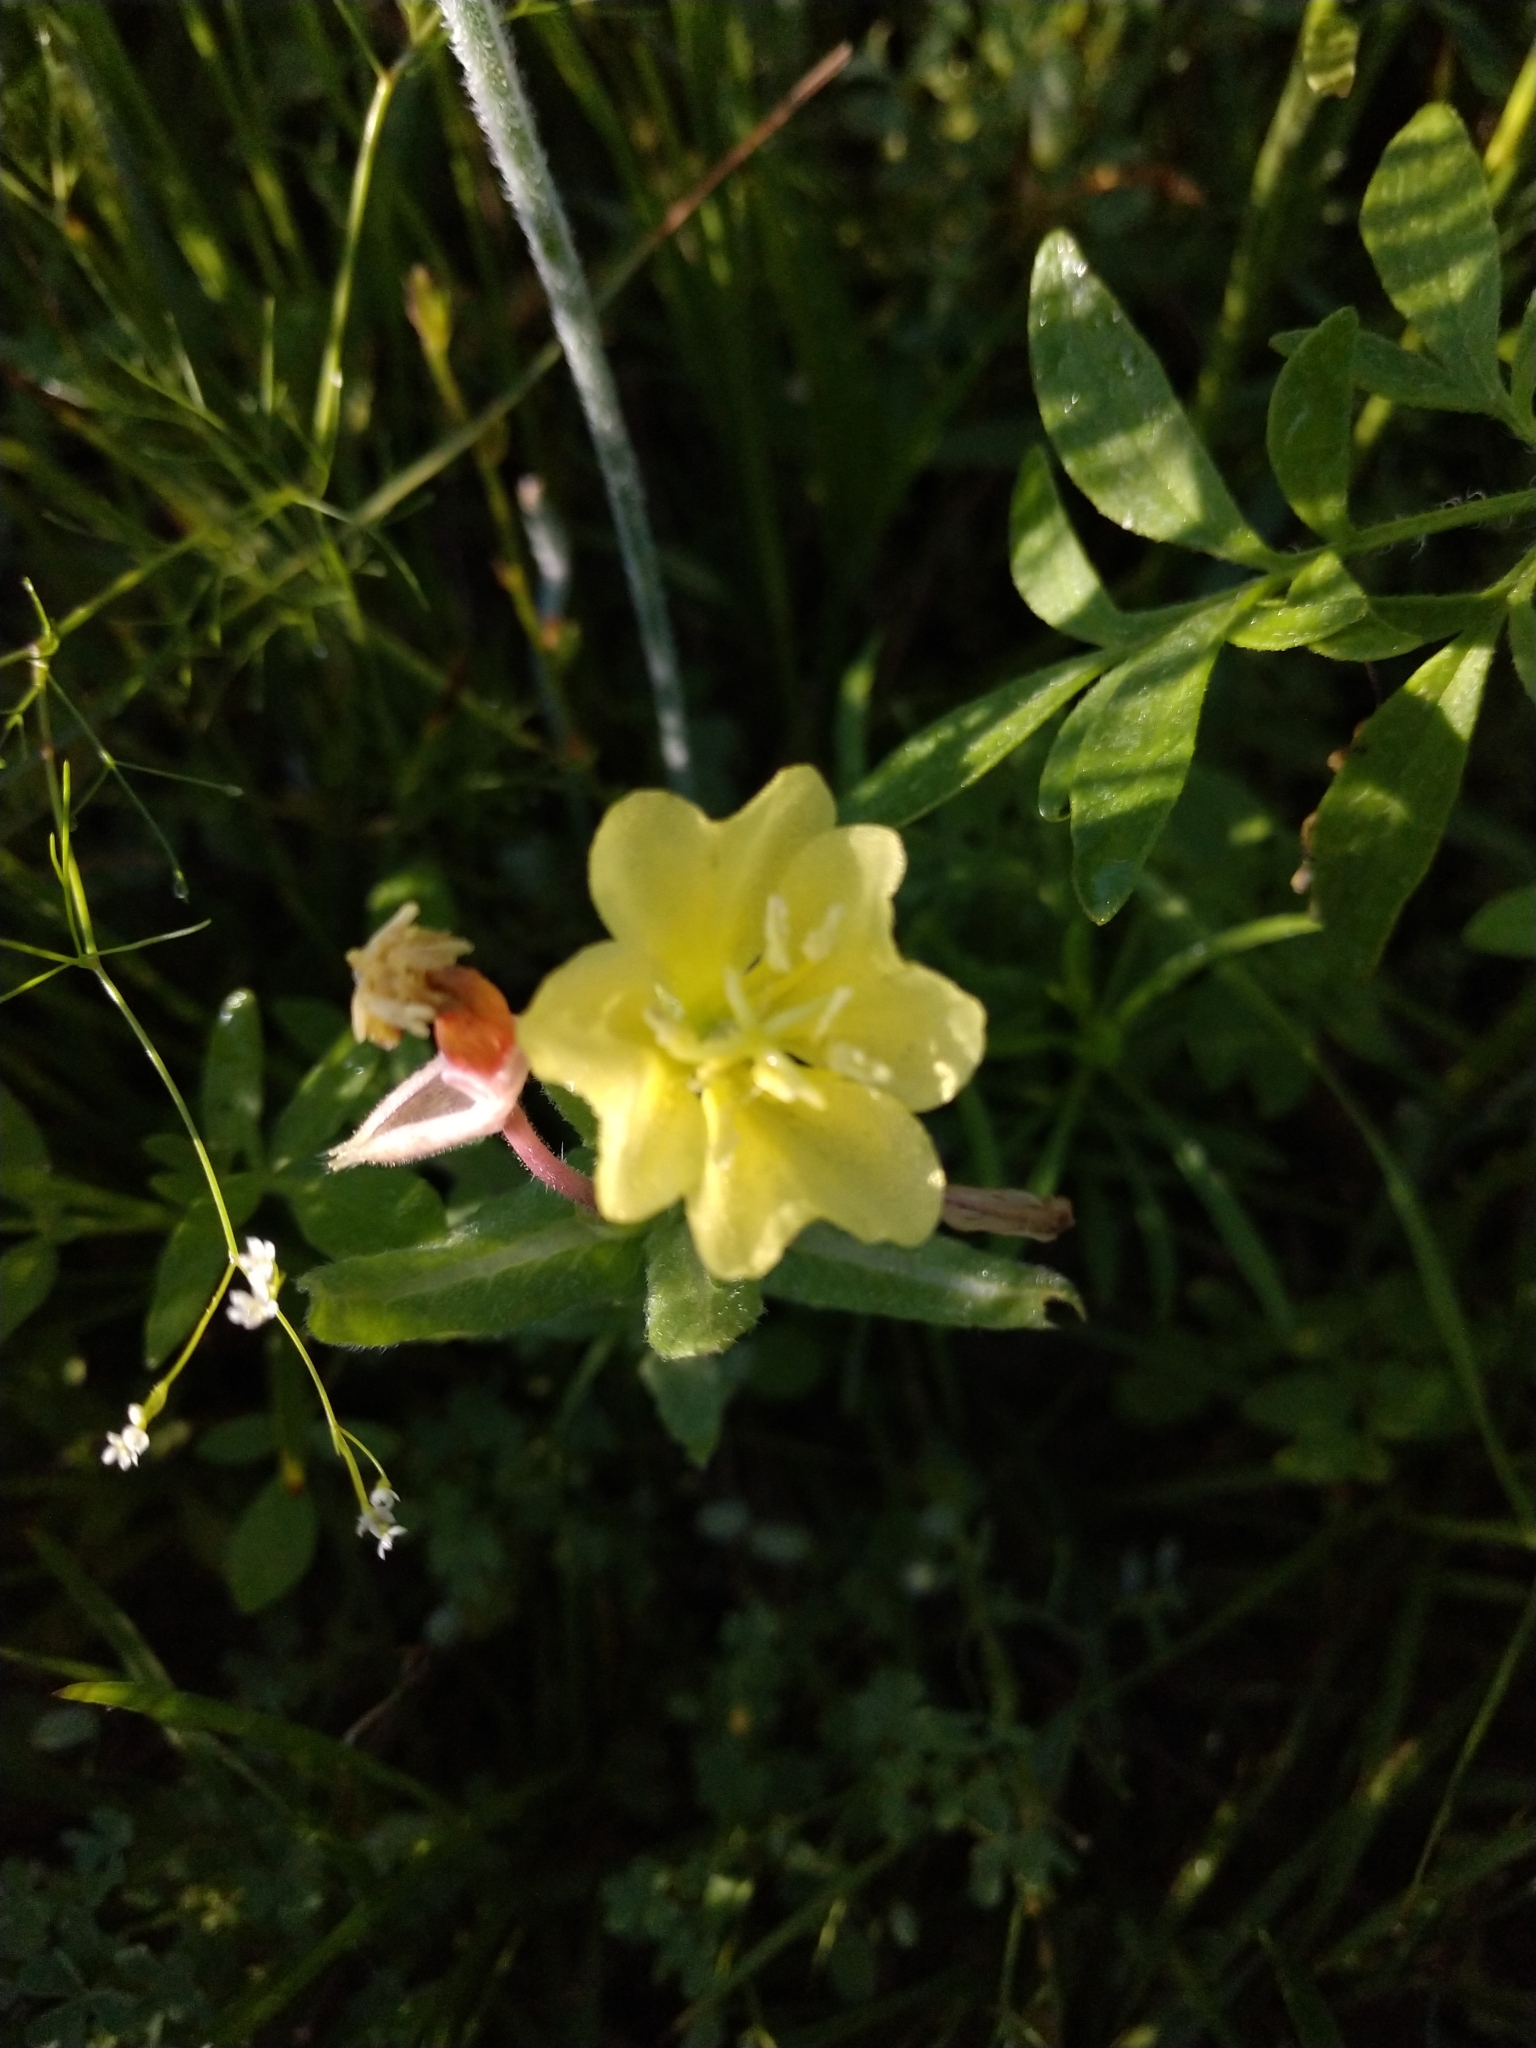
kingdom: Plantae
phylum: Tracheophyta
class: Magnoliopsida
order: Myrtales
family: Onagraceae
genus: Oenothera
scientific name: Oenothera laciniata
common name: Cut-leaved evening-primrose
